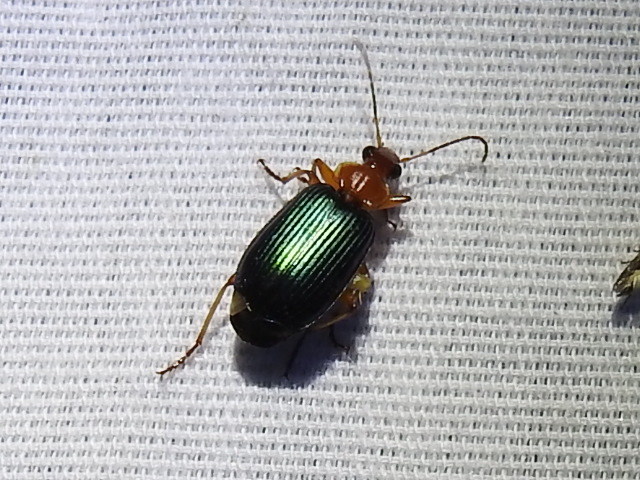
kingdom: Animalia
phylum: Arthropoda
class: Insecta
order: Coleoptera
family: Carabidae
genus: Lebia
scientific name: Lebia grandis
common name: Large foliage ground beetle
